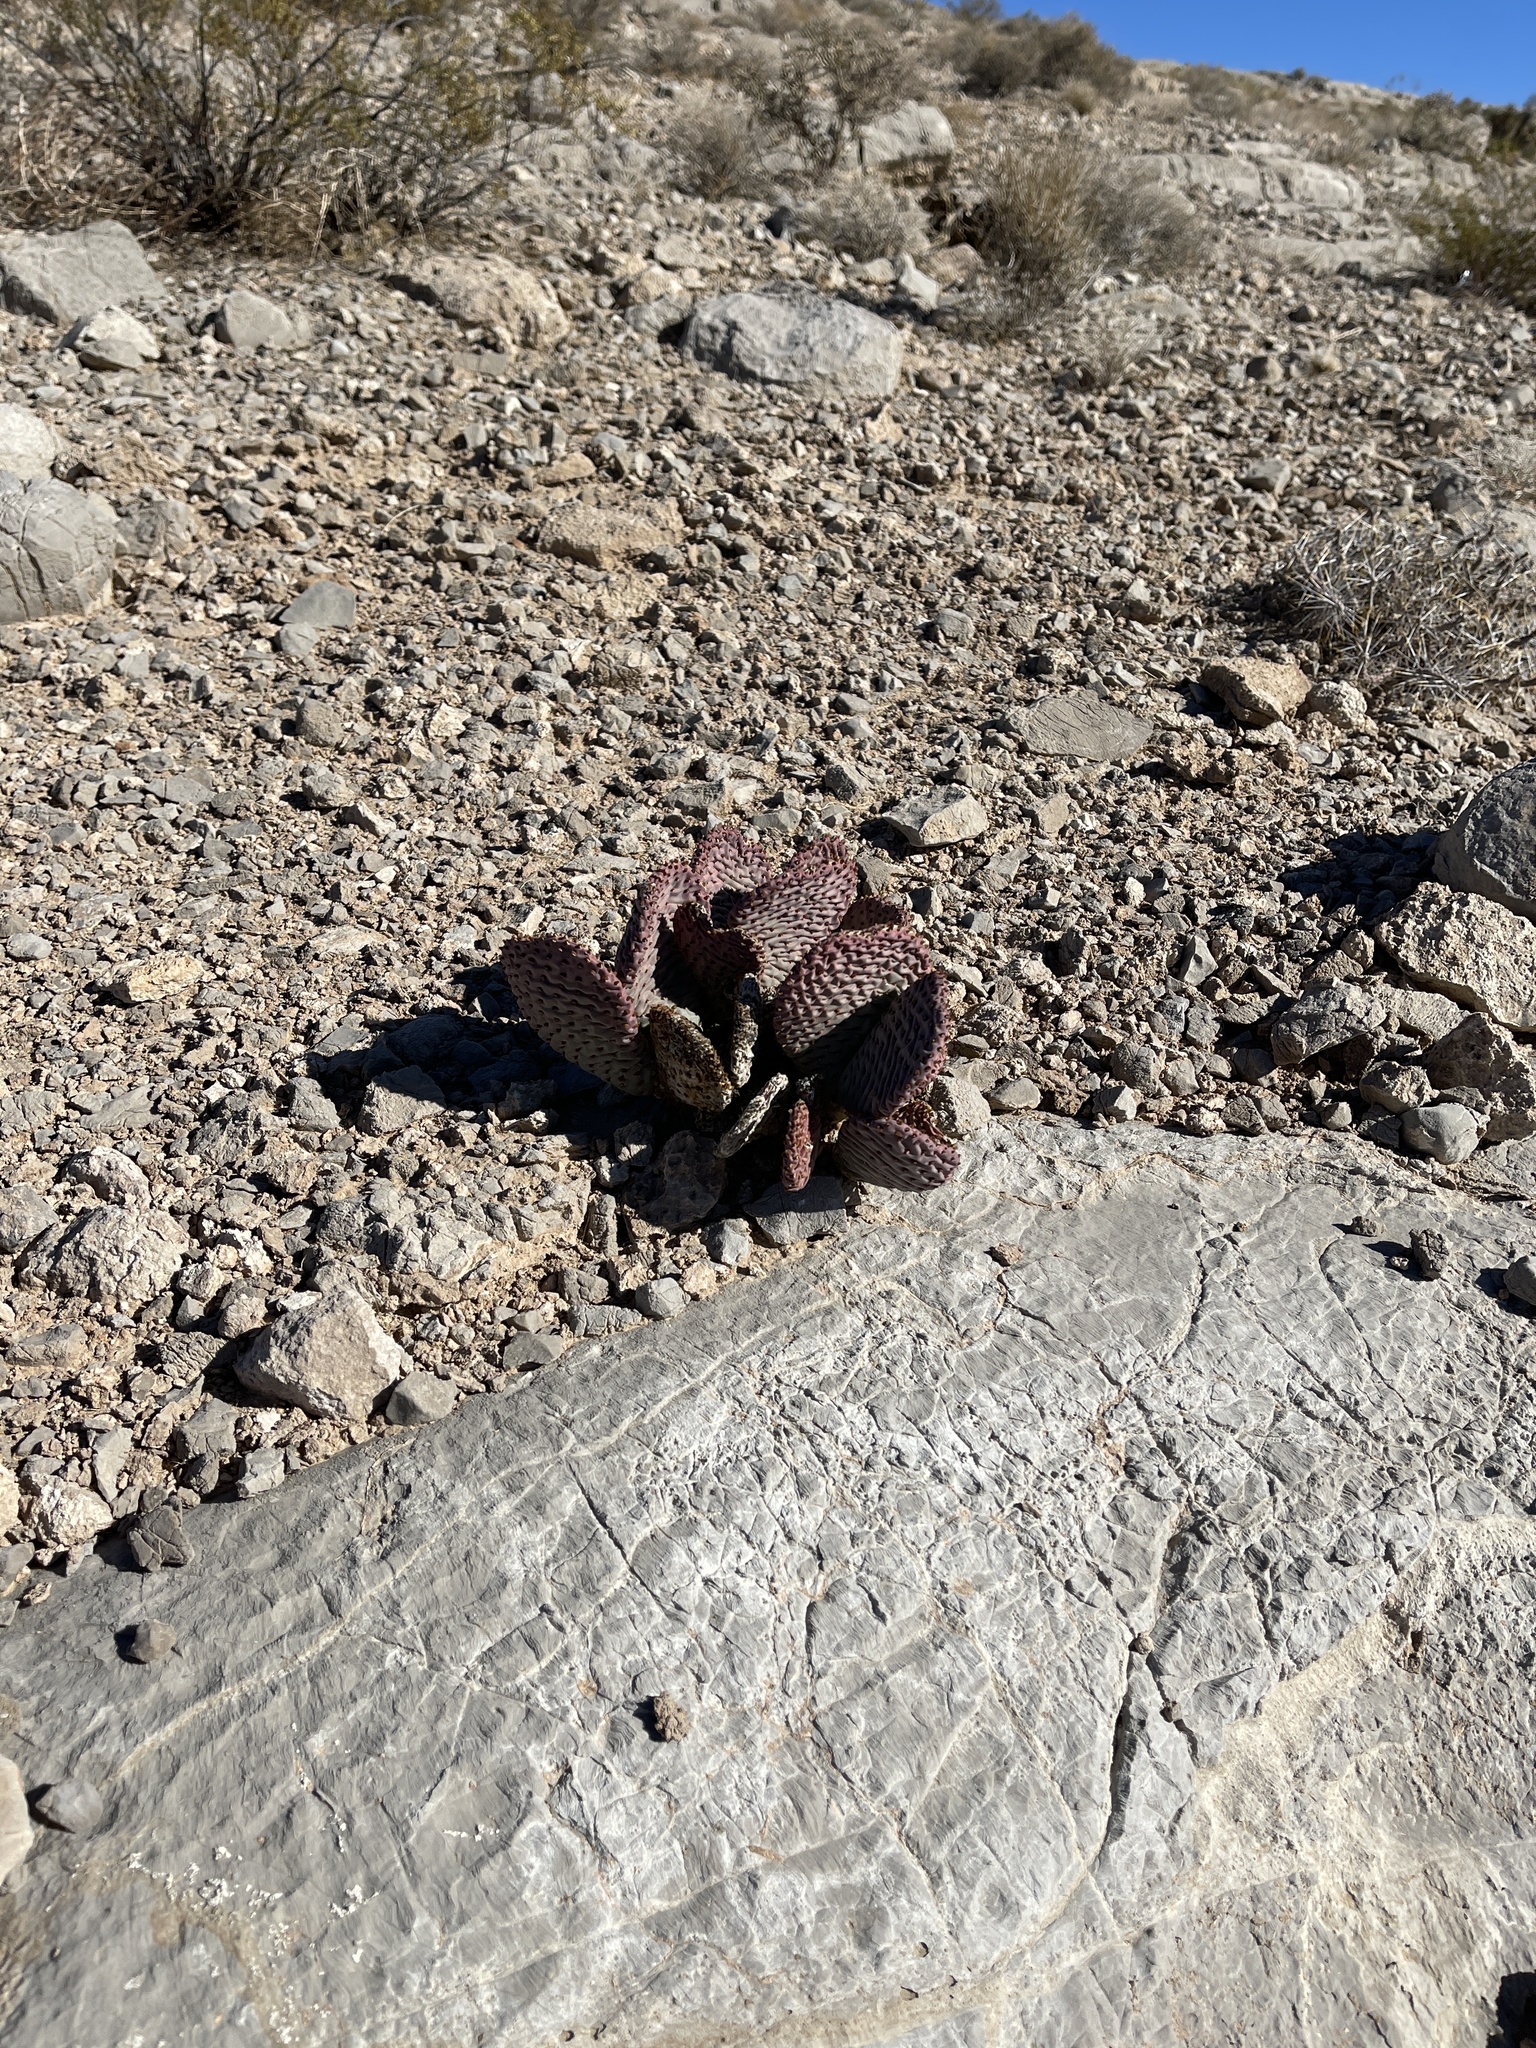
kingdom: Plantae
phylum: Tracheophyta
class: Magnoliopsida
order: Caryophyllales
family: Cactaceae
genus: Opuntia
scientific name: Opuntia basilaris
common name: Beavertail prickly-pear
